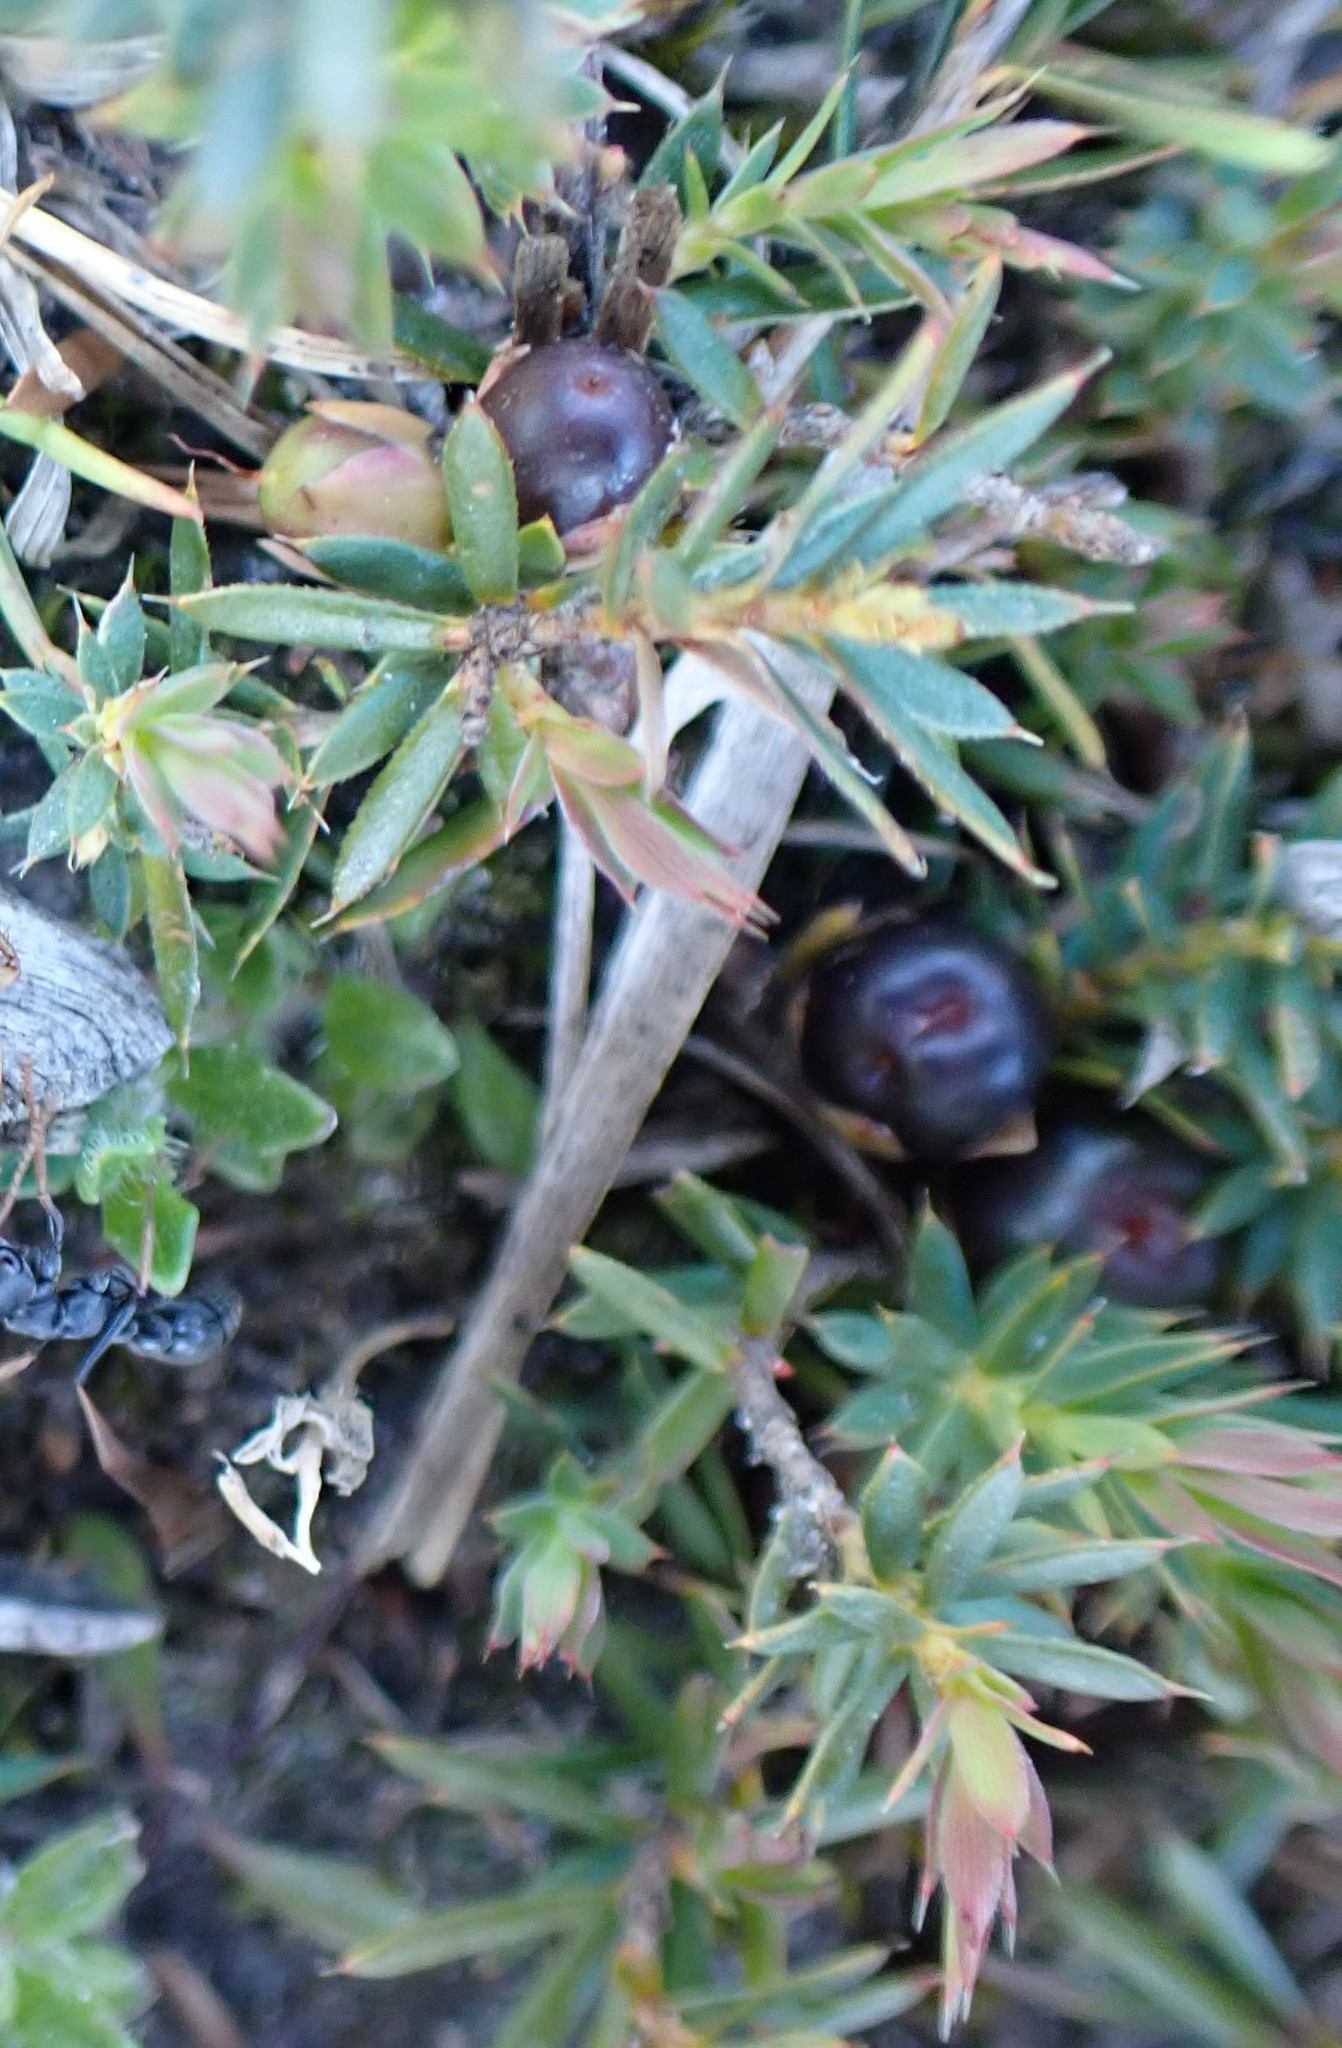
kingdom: Plantae
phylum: Tracheophyta
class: Magnoliopsida
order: Ericales
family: Ericaceae
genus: Styphelia
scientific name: Styphelia humifusa
